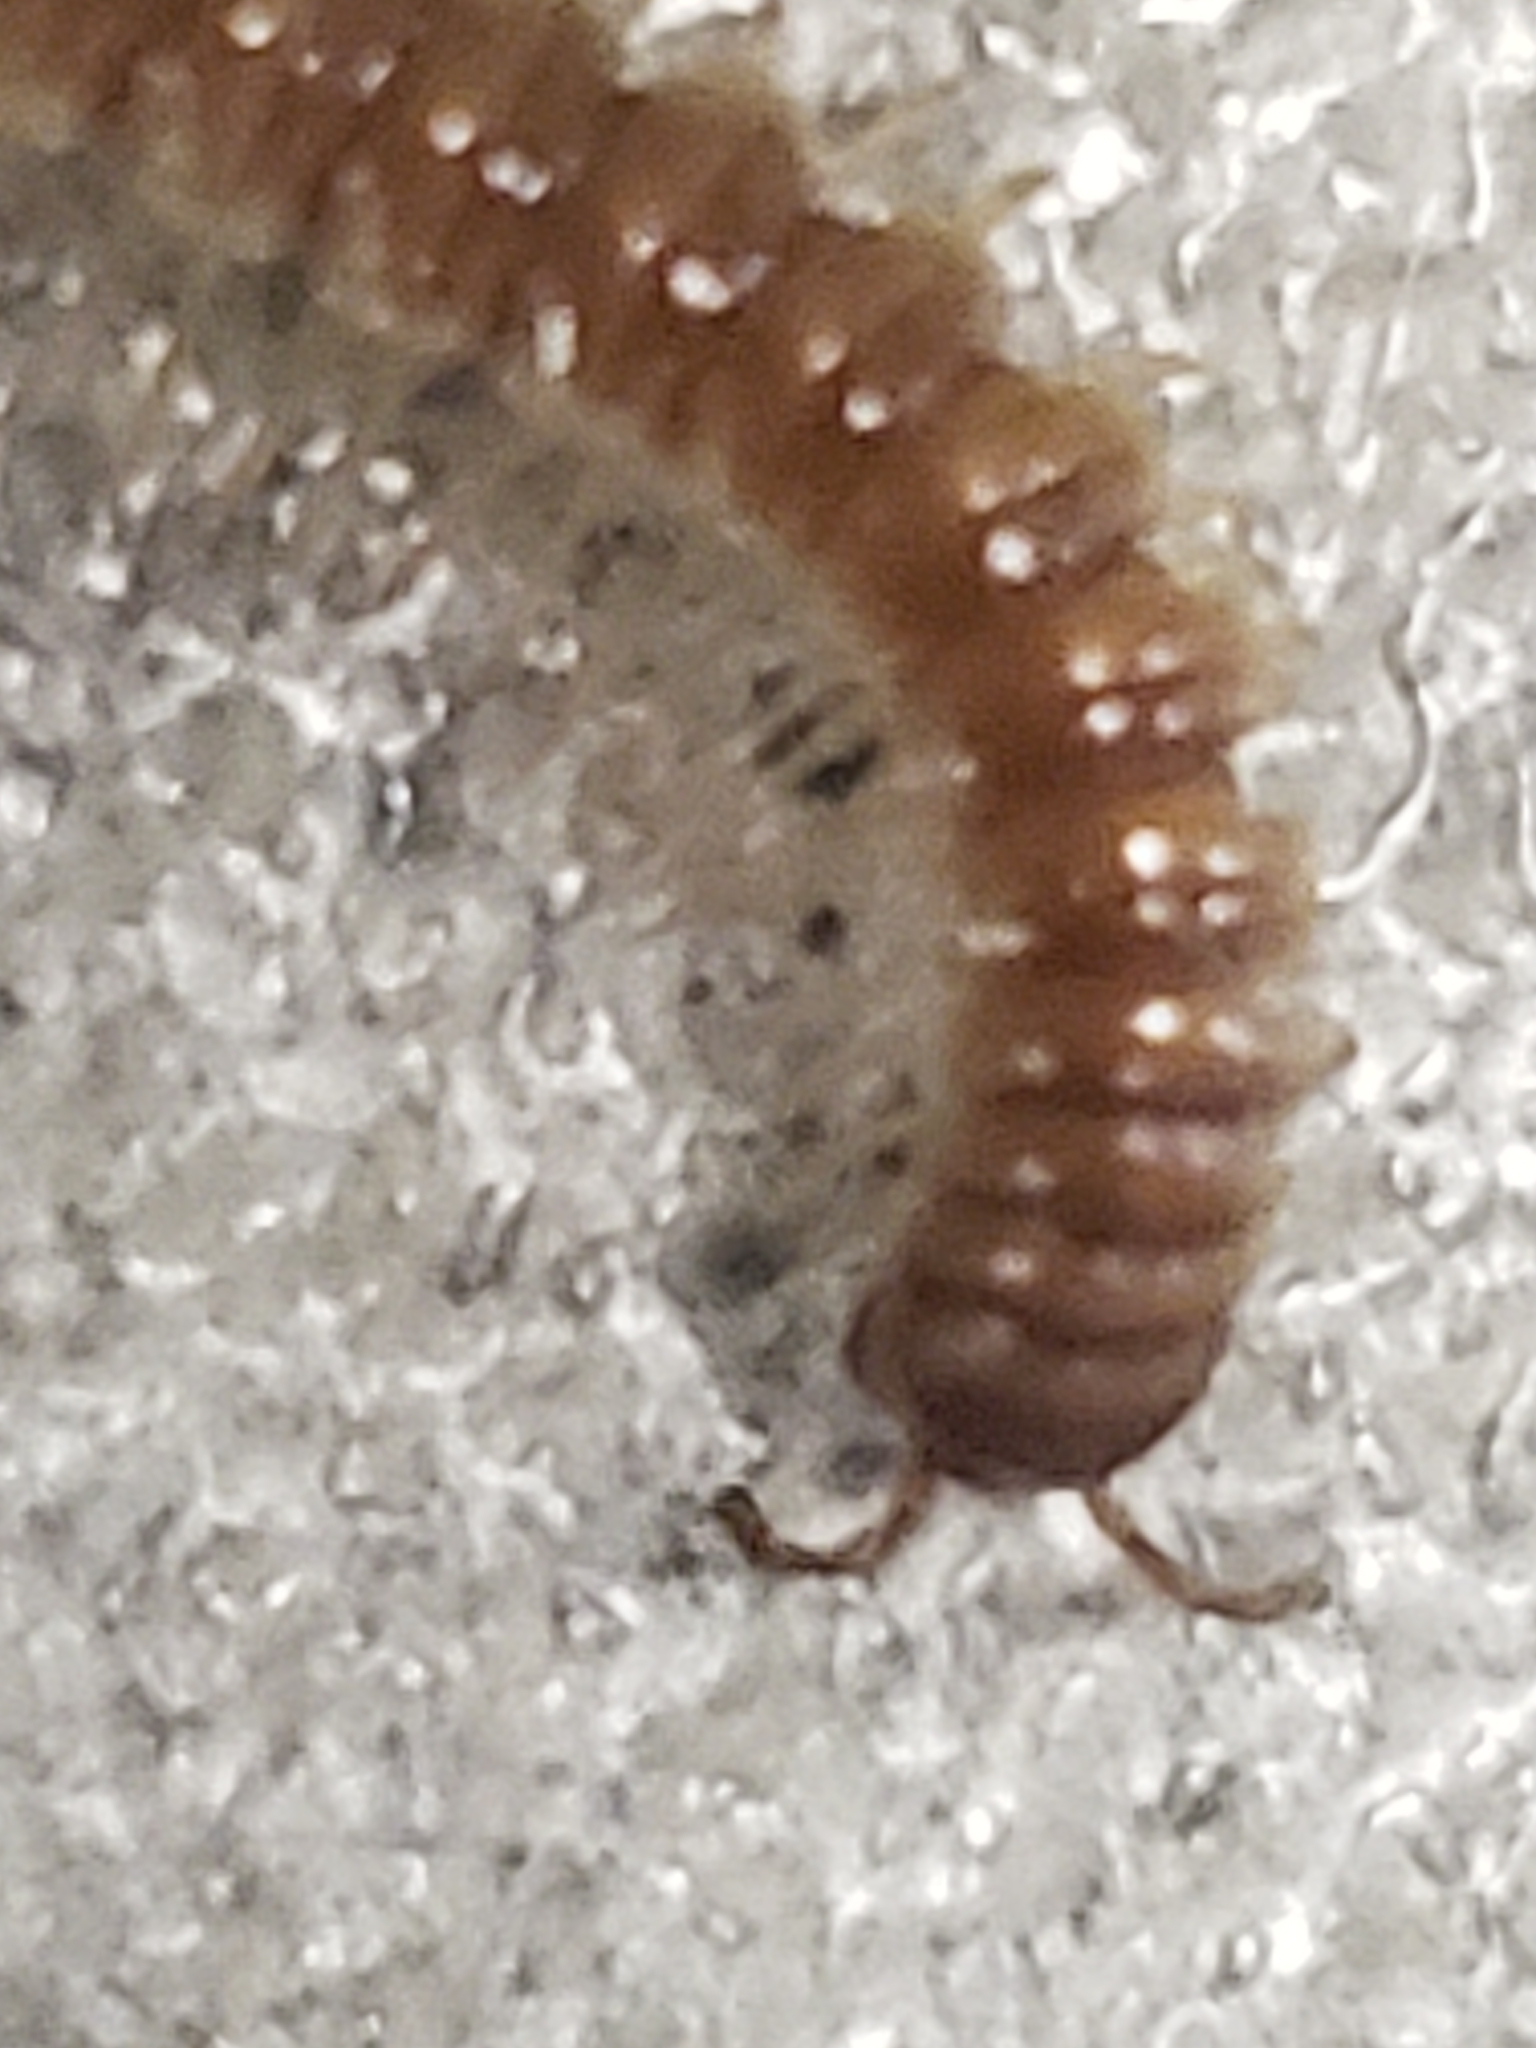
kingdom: Animalia
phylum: Arthropoda
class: Diplopoda
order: Polydesmida
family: Paradoxosomatidae
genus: Oxidus
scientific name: Oxidus gracilis
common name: Greenhouse millipede
